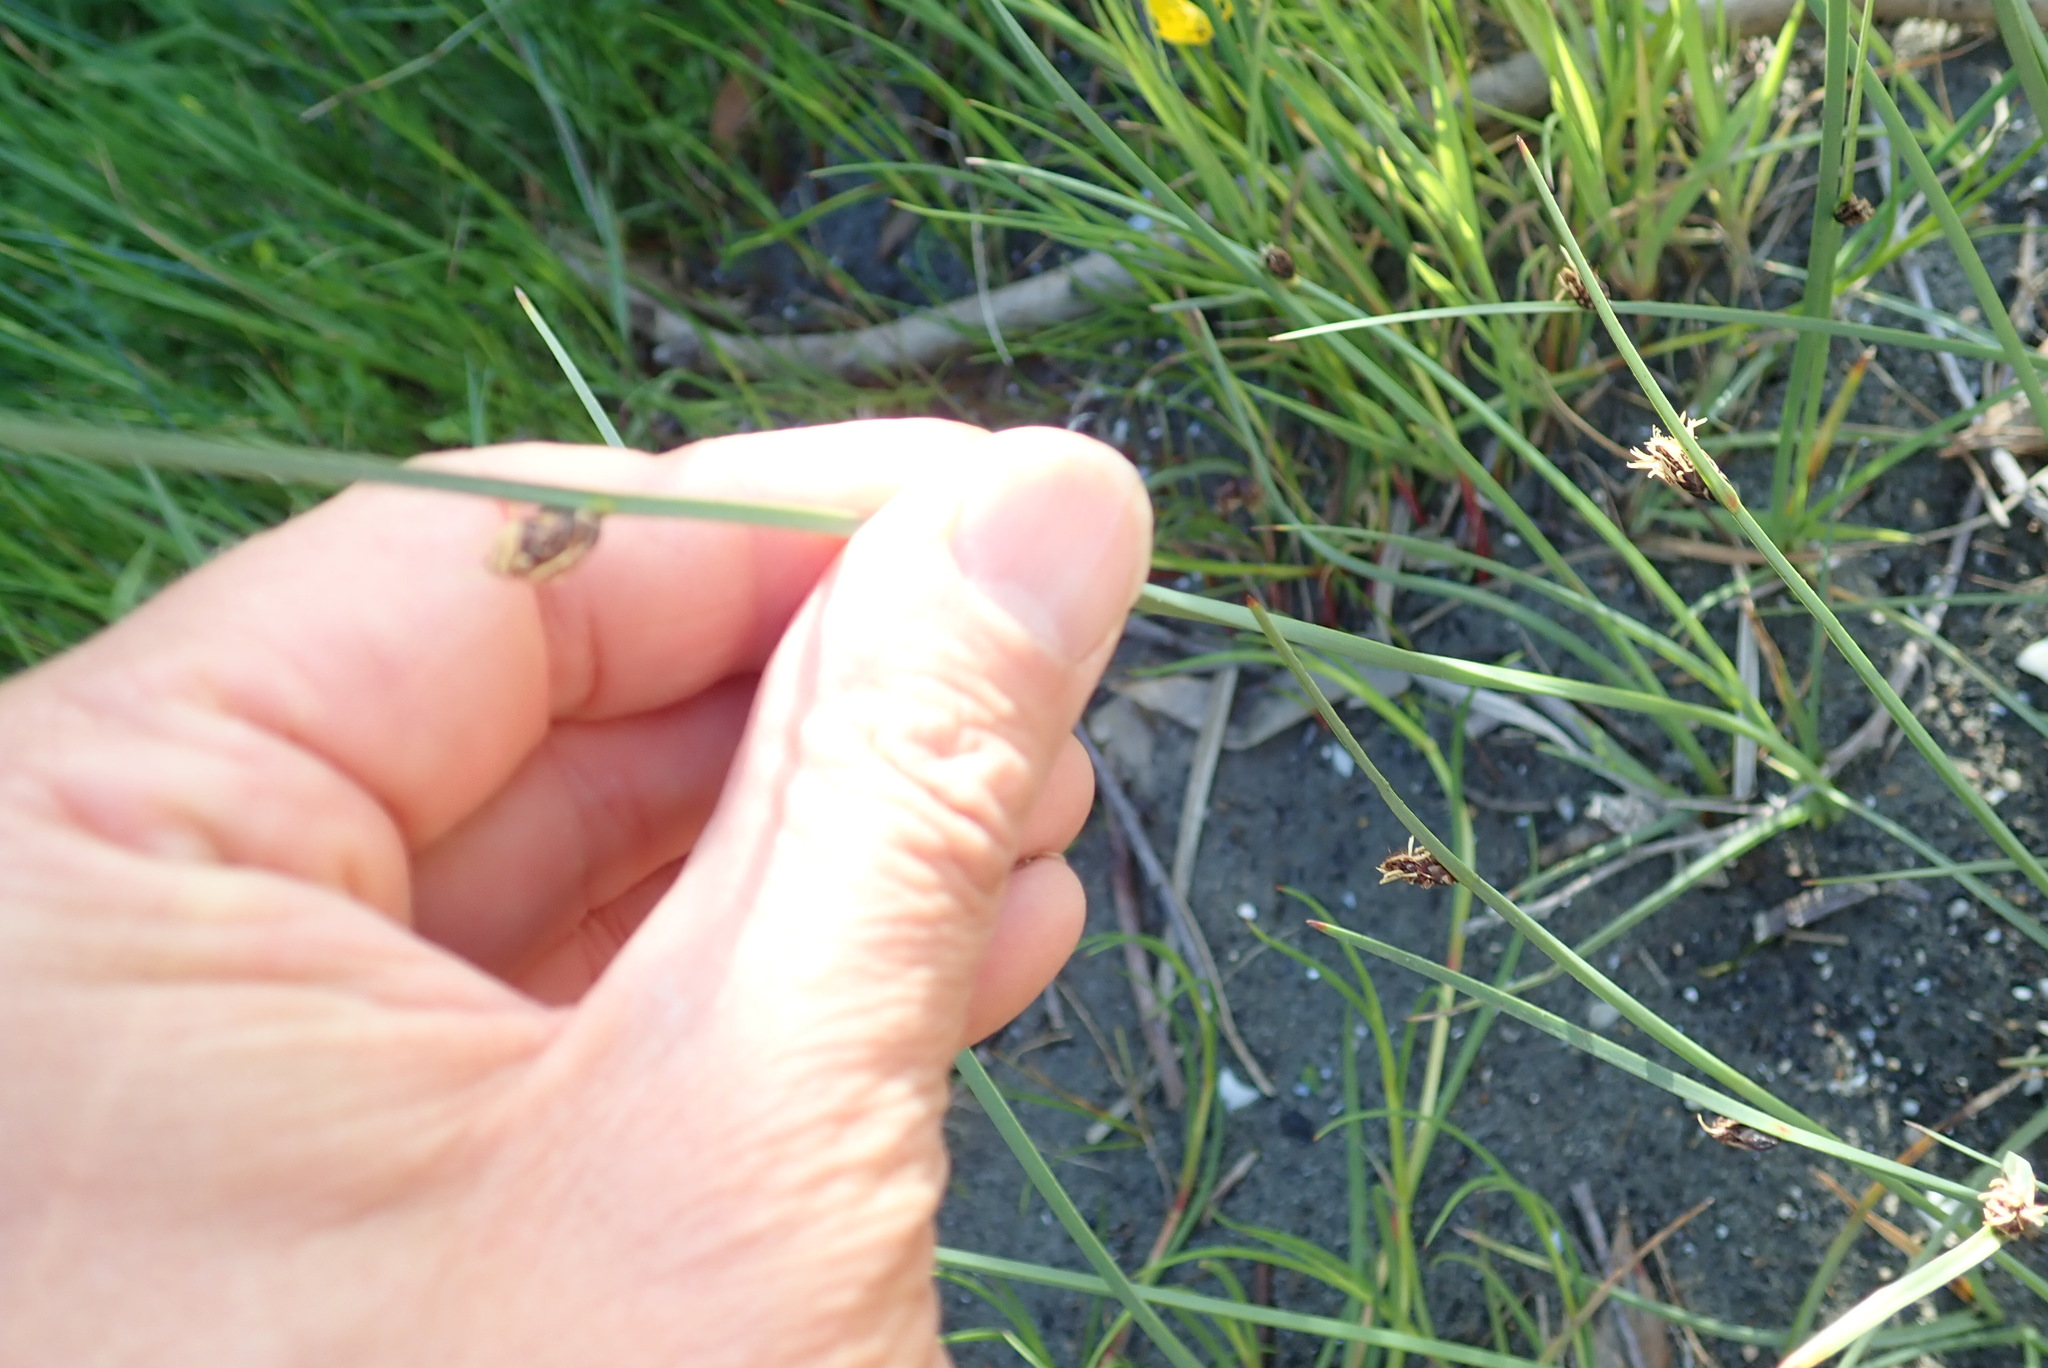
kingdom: Plantae
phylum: Tracheophyta
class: Liliopsida
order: Poales
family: Cyperaceae
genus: Schoenoplectus
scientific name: Schoenoplectus pungens
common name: Sharp club-rush
